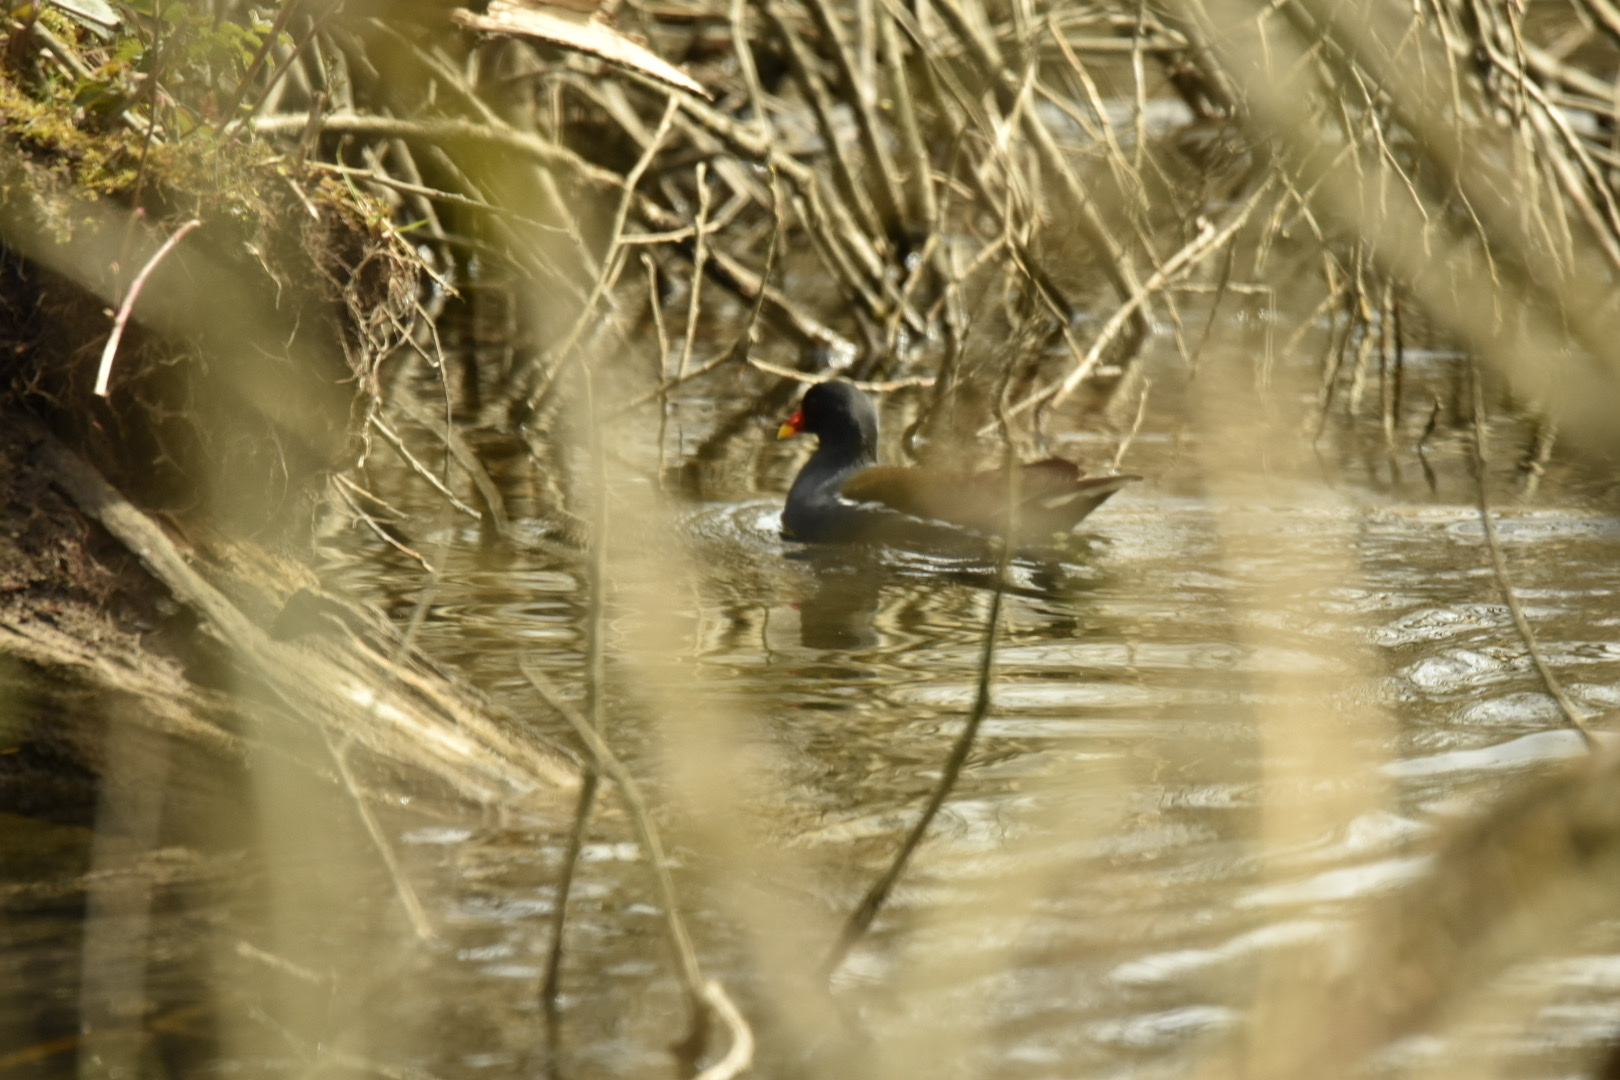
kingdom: Animalia
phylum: Chordata
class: Aves
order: Gruiformes
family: Rallidae
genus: Gallinula
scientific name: Gallinula chloropus
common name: Common moorhen
